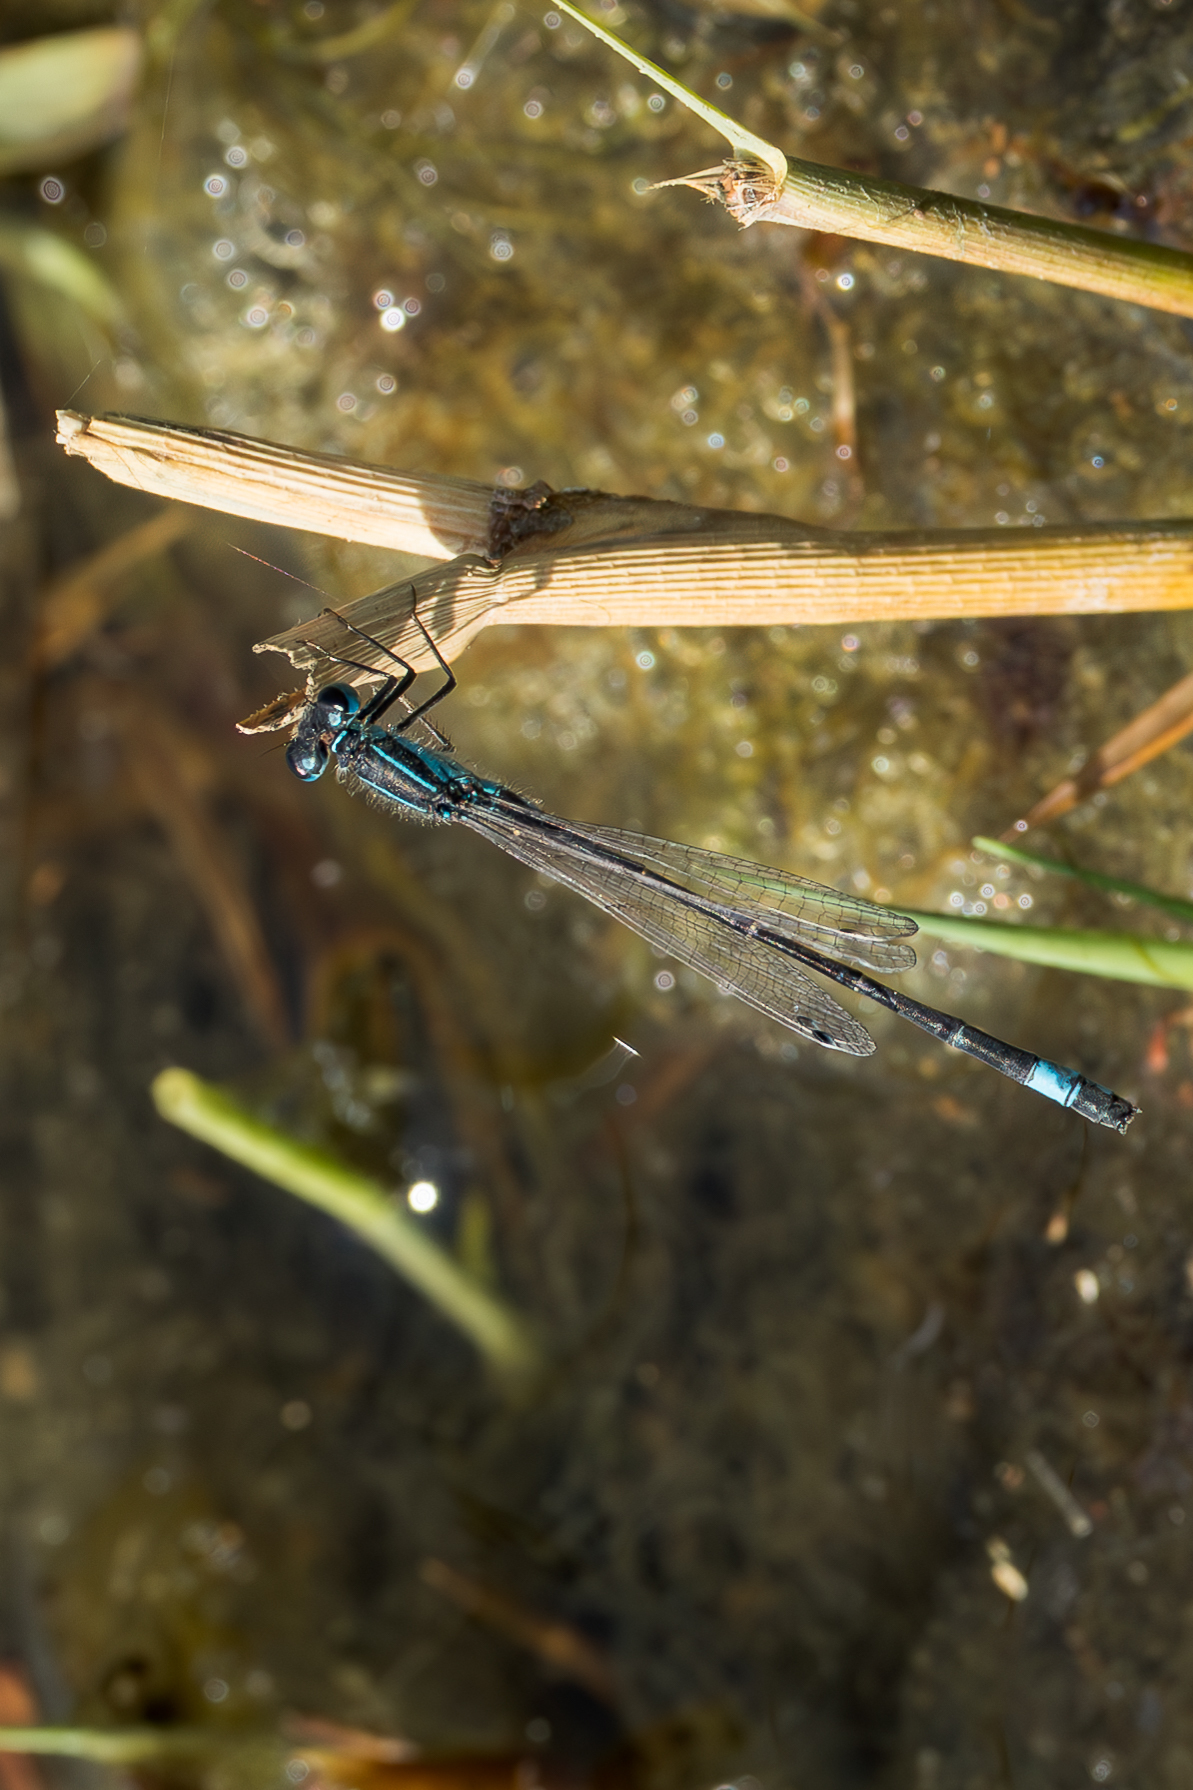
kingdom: Animalia
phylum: Arthropoda
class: Insecta
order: Odonata
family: Coenagrionidae
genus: Ischnura
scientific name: Ischnura elegans
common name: Blue-tailed damselfly
